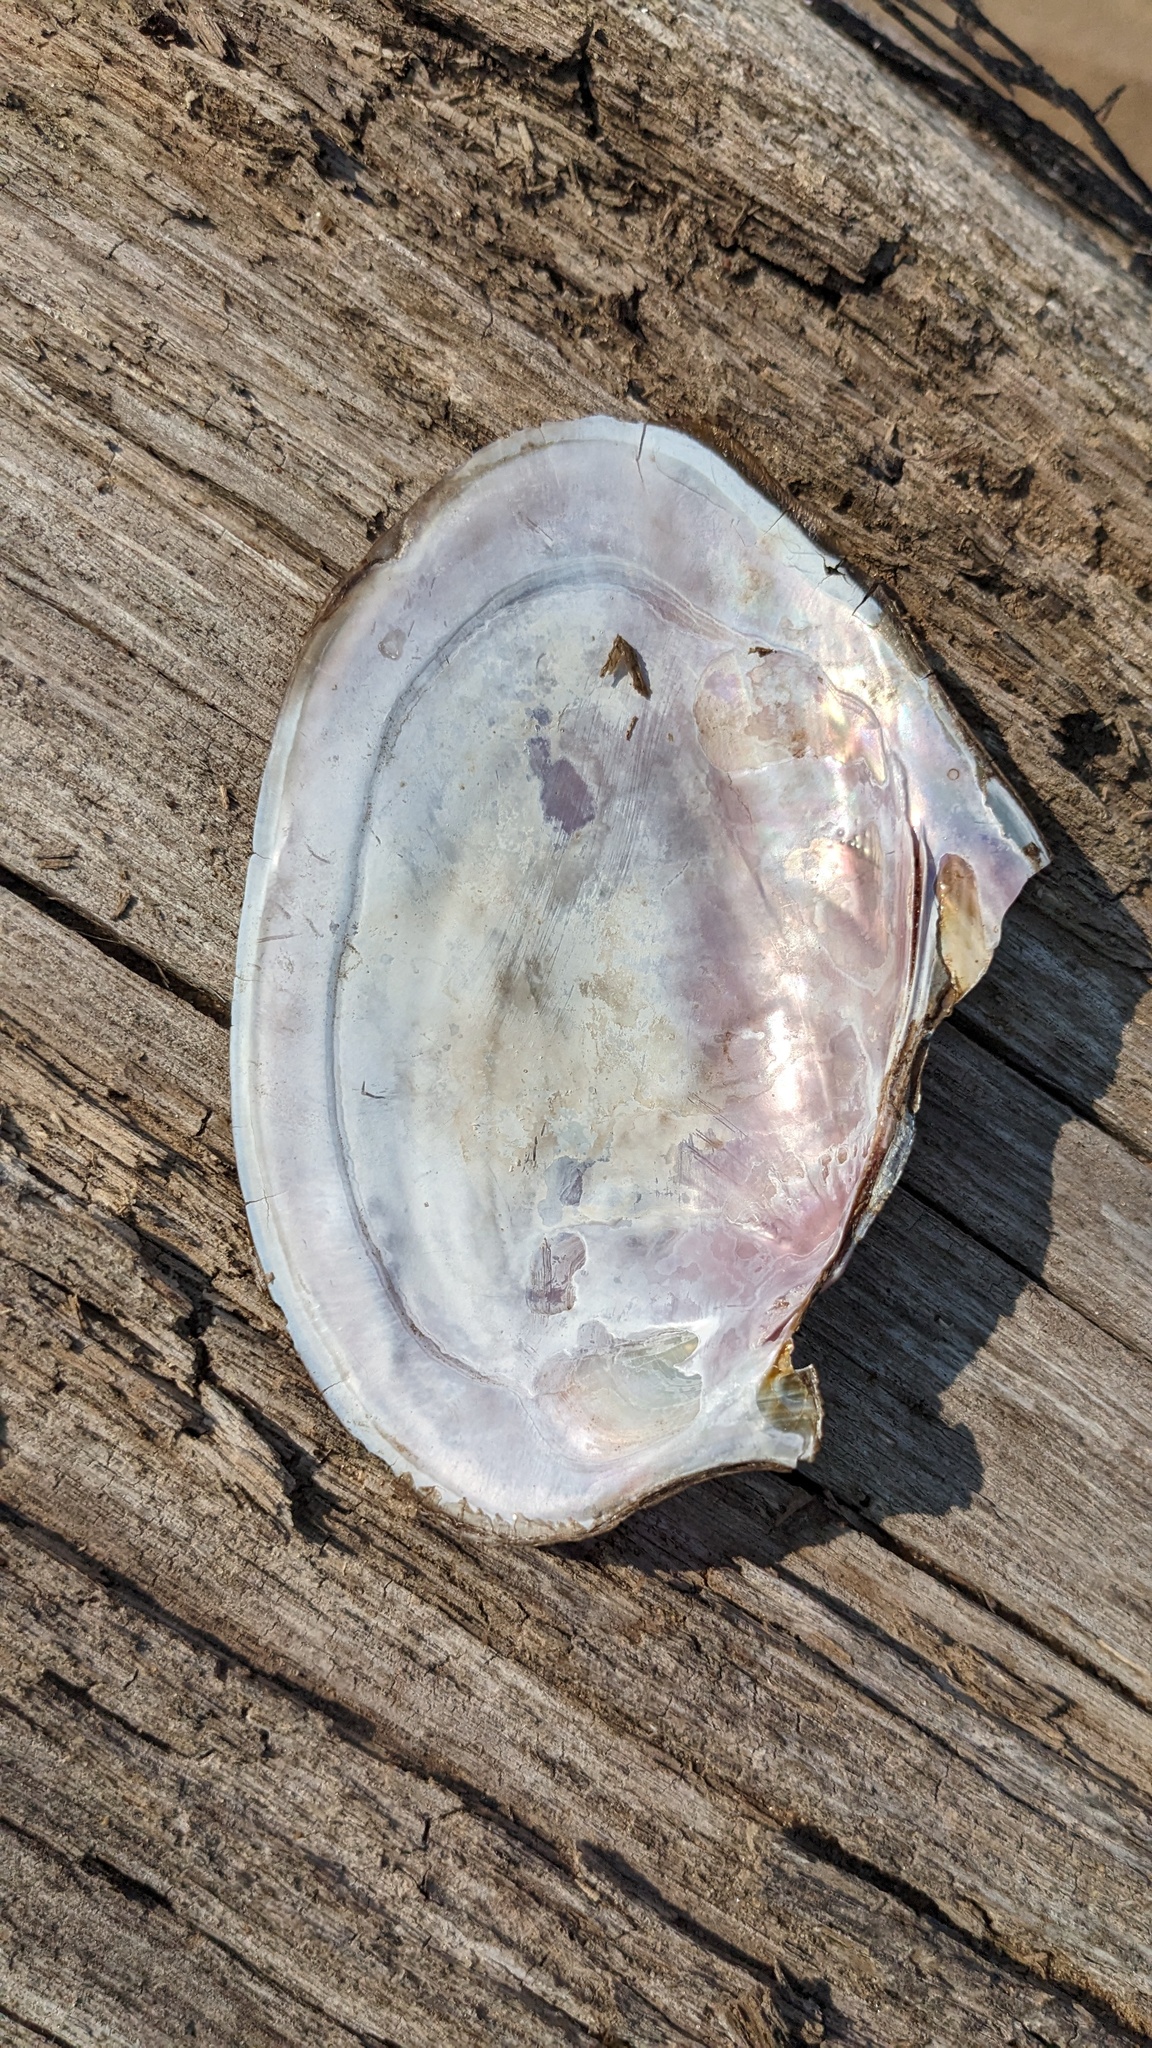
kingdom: Animalia
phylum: Mollusca
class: Bivalvia
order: Unionida
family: Unionidae
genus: Potamilus
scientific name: Potamilus ohiensis
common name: Pink papershell
